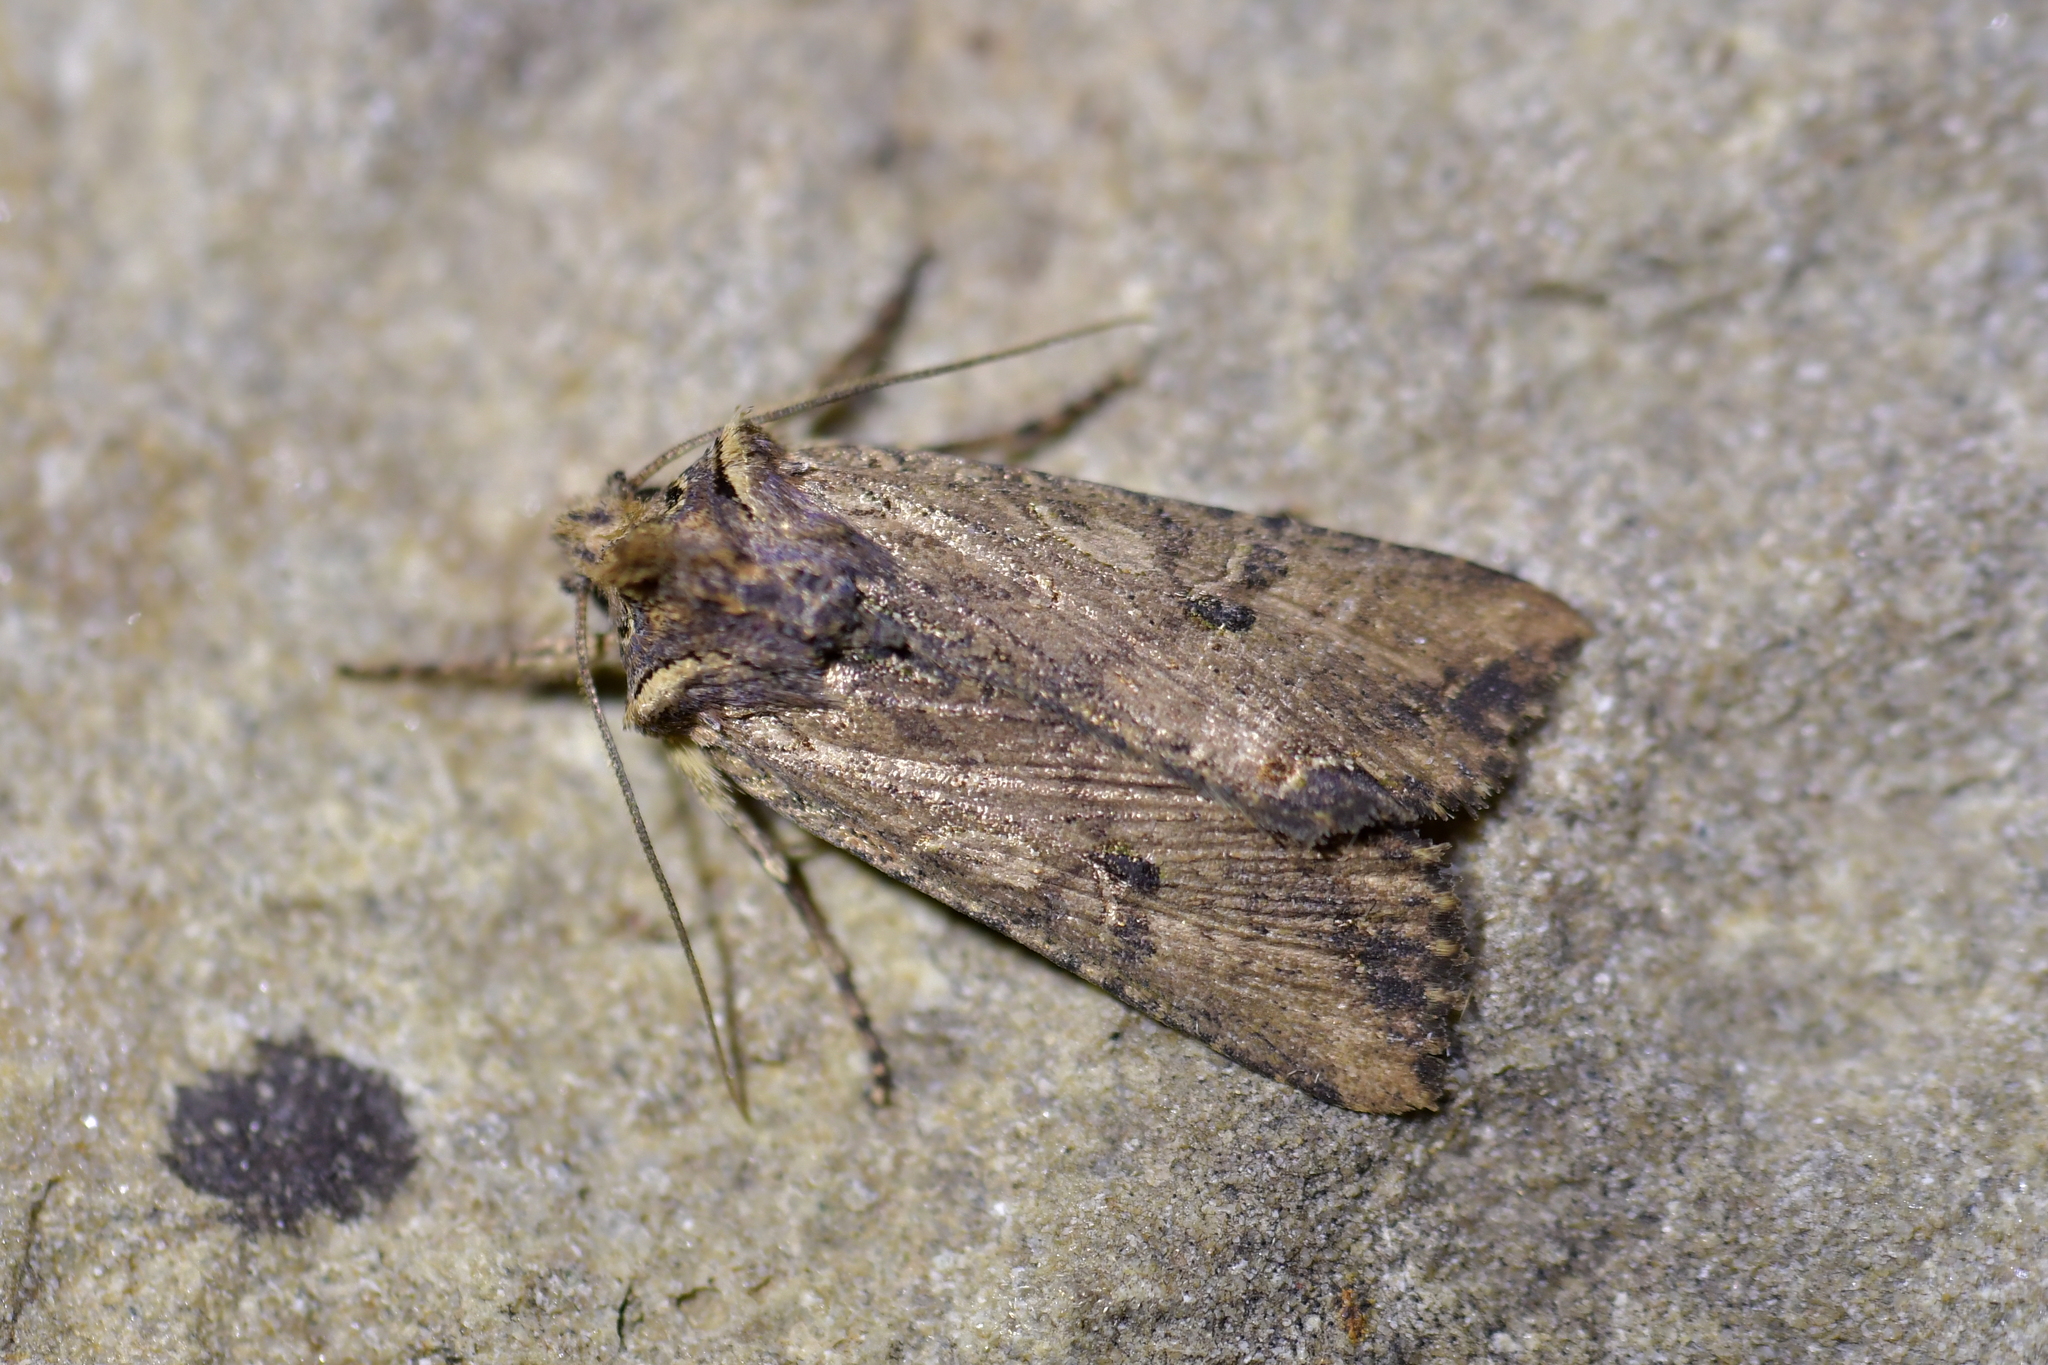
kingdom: Animalia
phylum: Arthropoda
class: Insecta
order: Lepidoptera
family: Noctuidae
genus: Meterana
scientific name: Meterana coeleno
